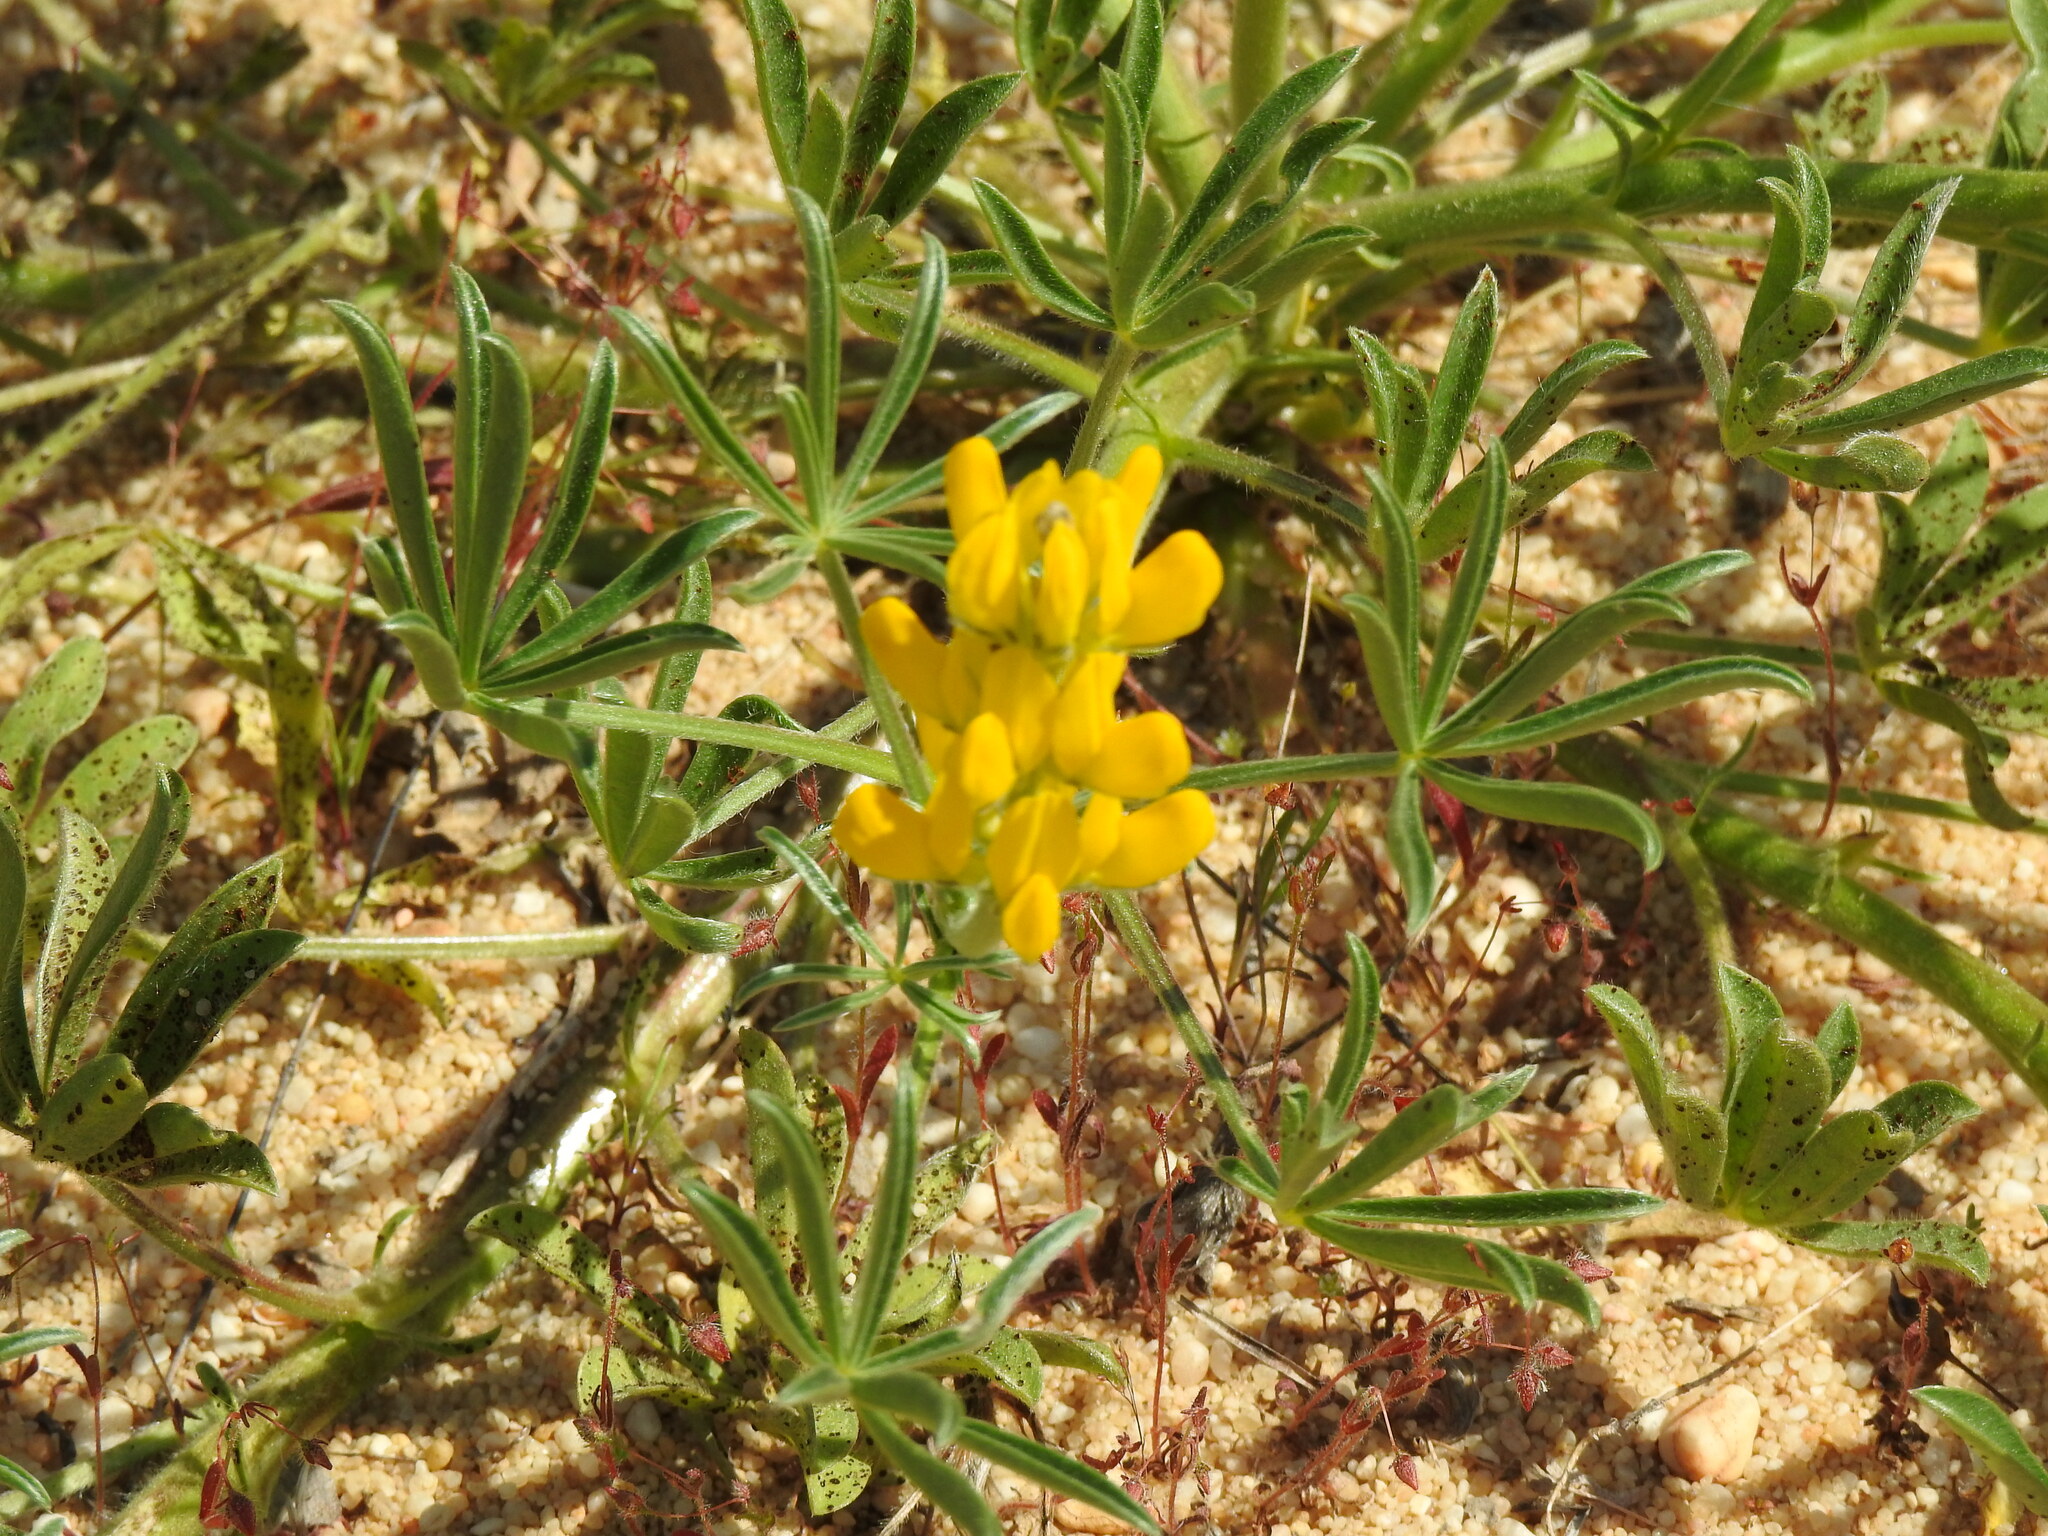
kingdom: Plantae
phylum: Tracheophyta
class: Magnoliopsida
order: Fabales
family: Fabaceae
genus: Lupinus
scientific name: Lupinus luteus
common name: European yellow lupine
